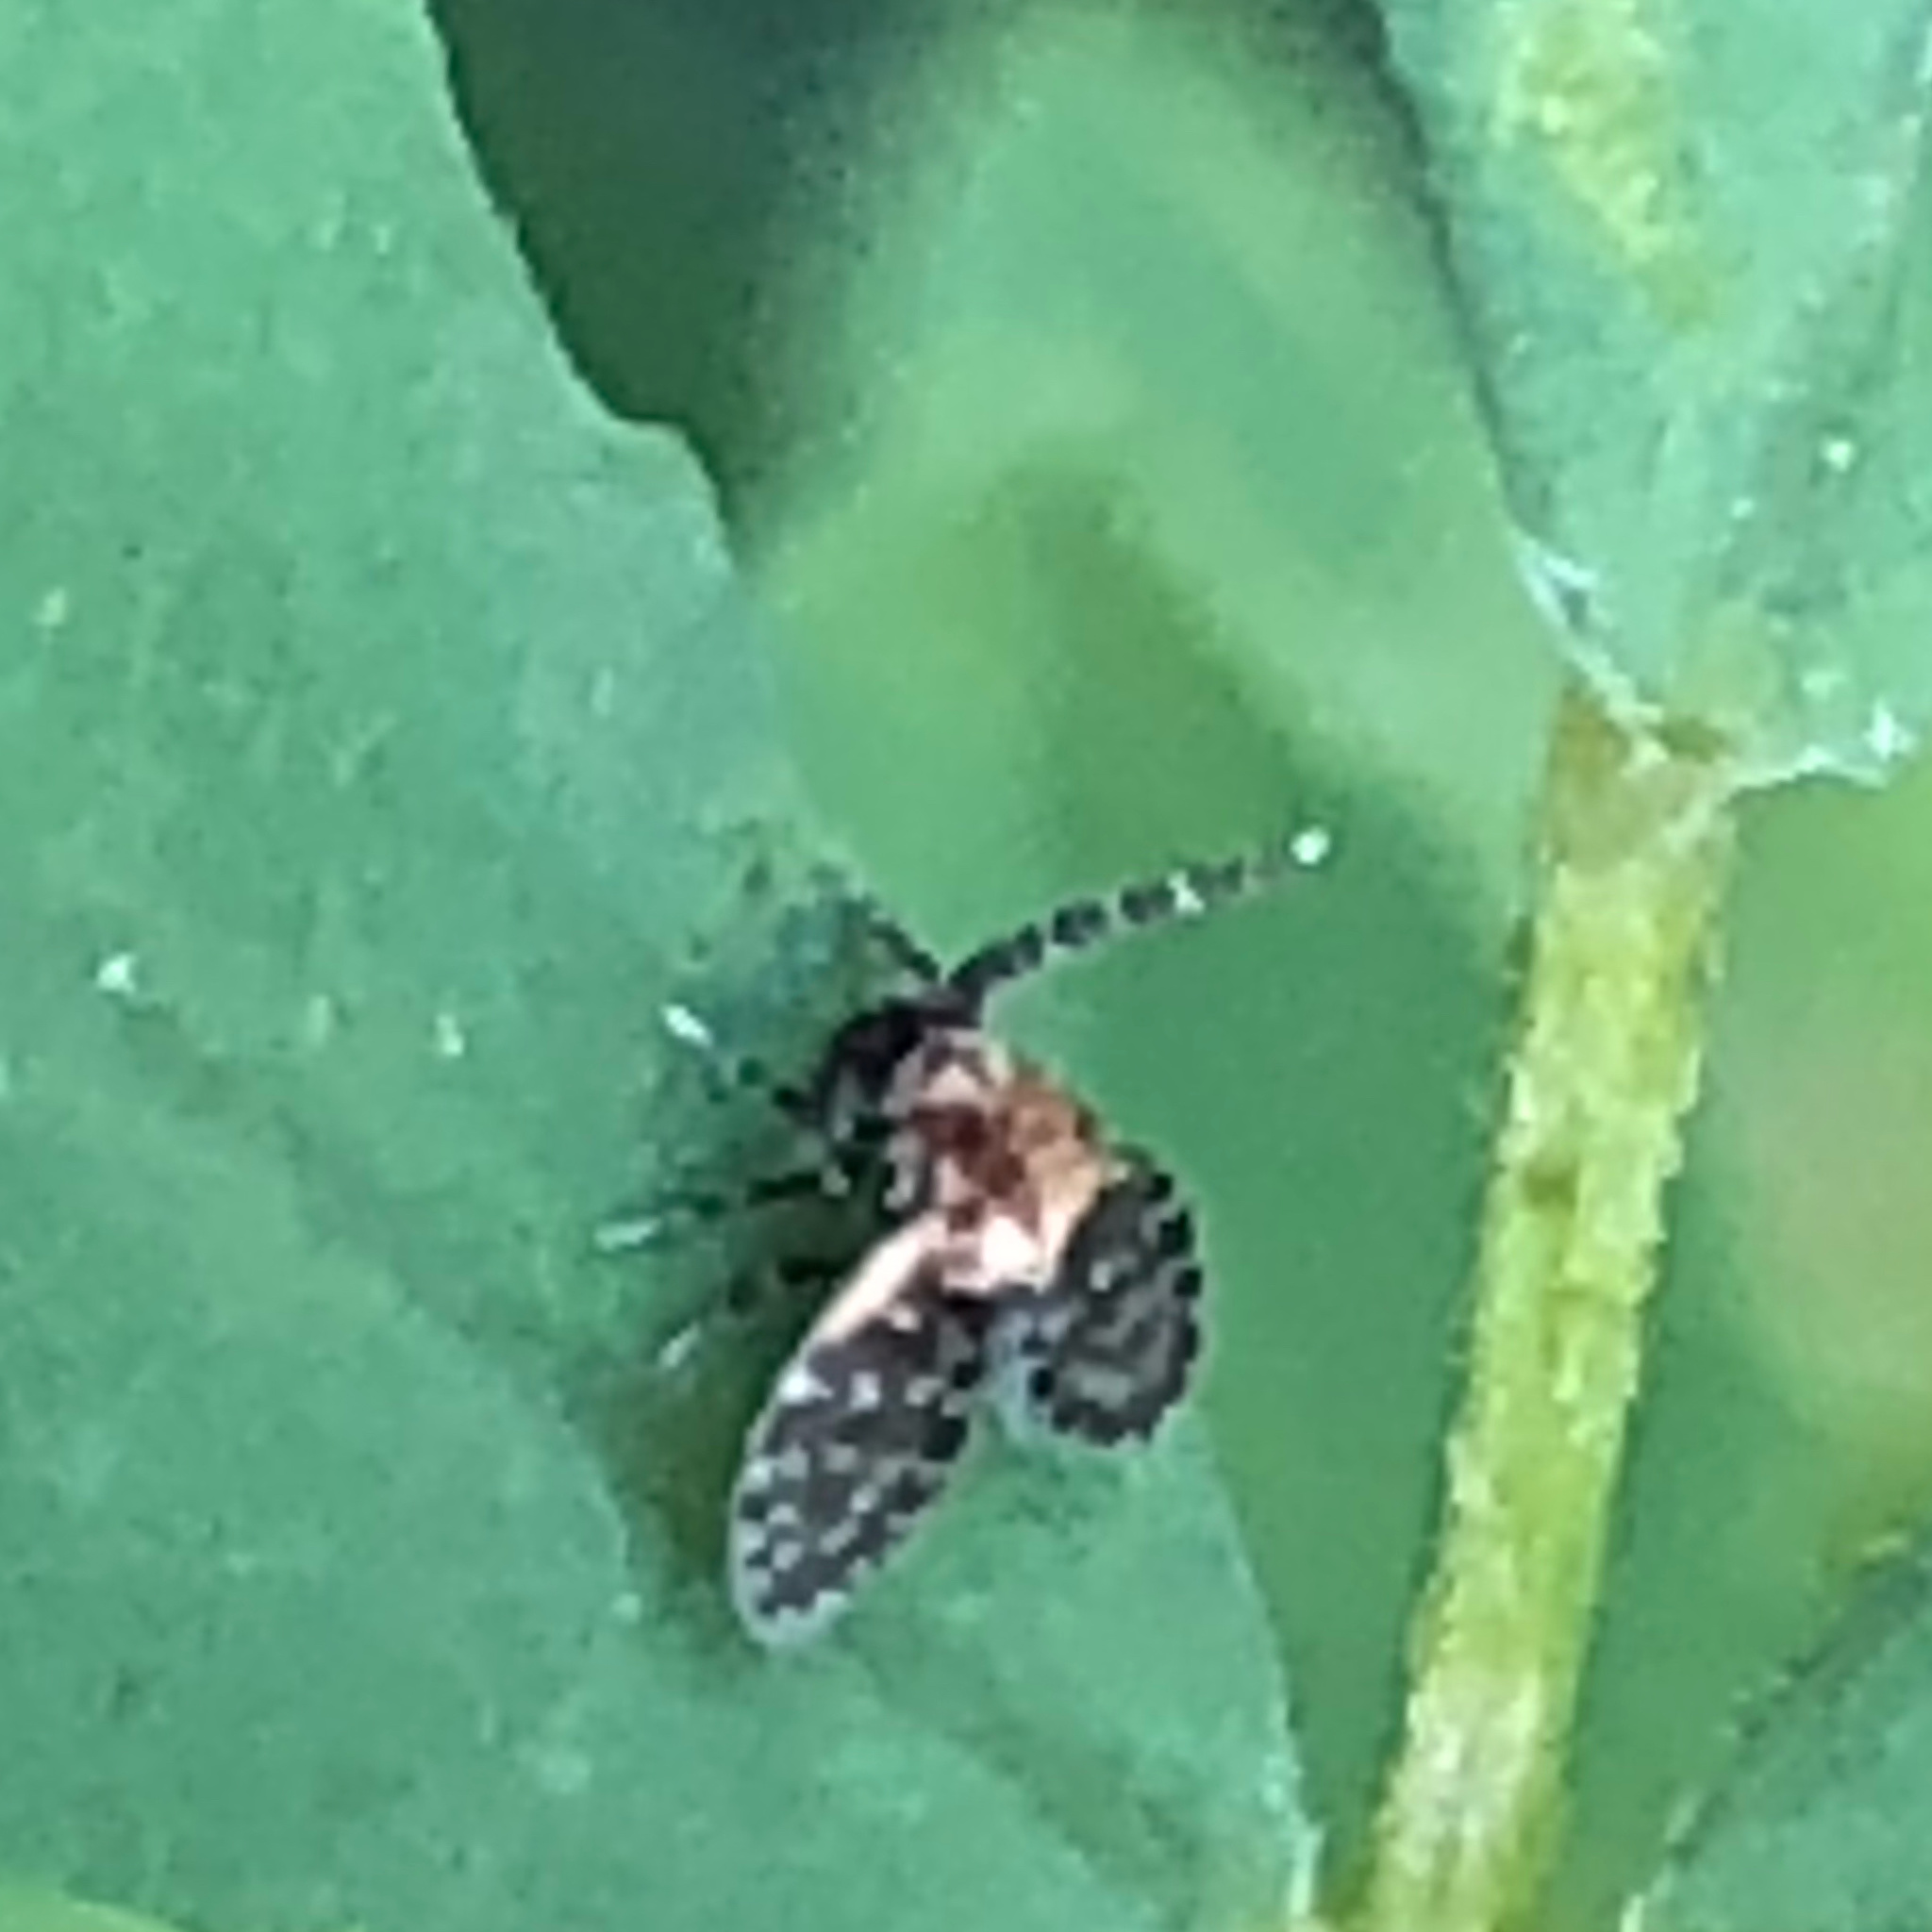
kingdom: Animalia
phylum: Arthropoda
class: Insecta
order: Diptera
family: Psychodidae
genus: Eurygarka
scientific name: Eurygarka
